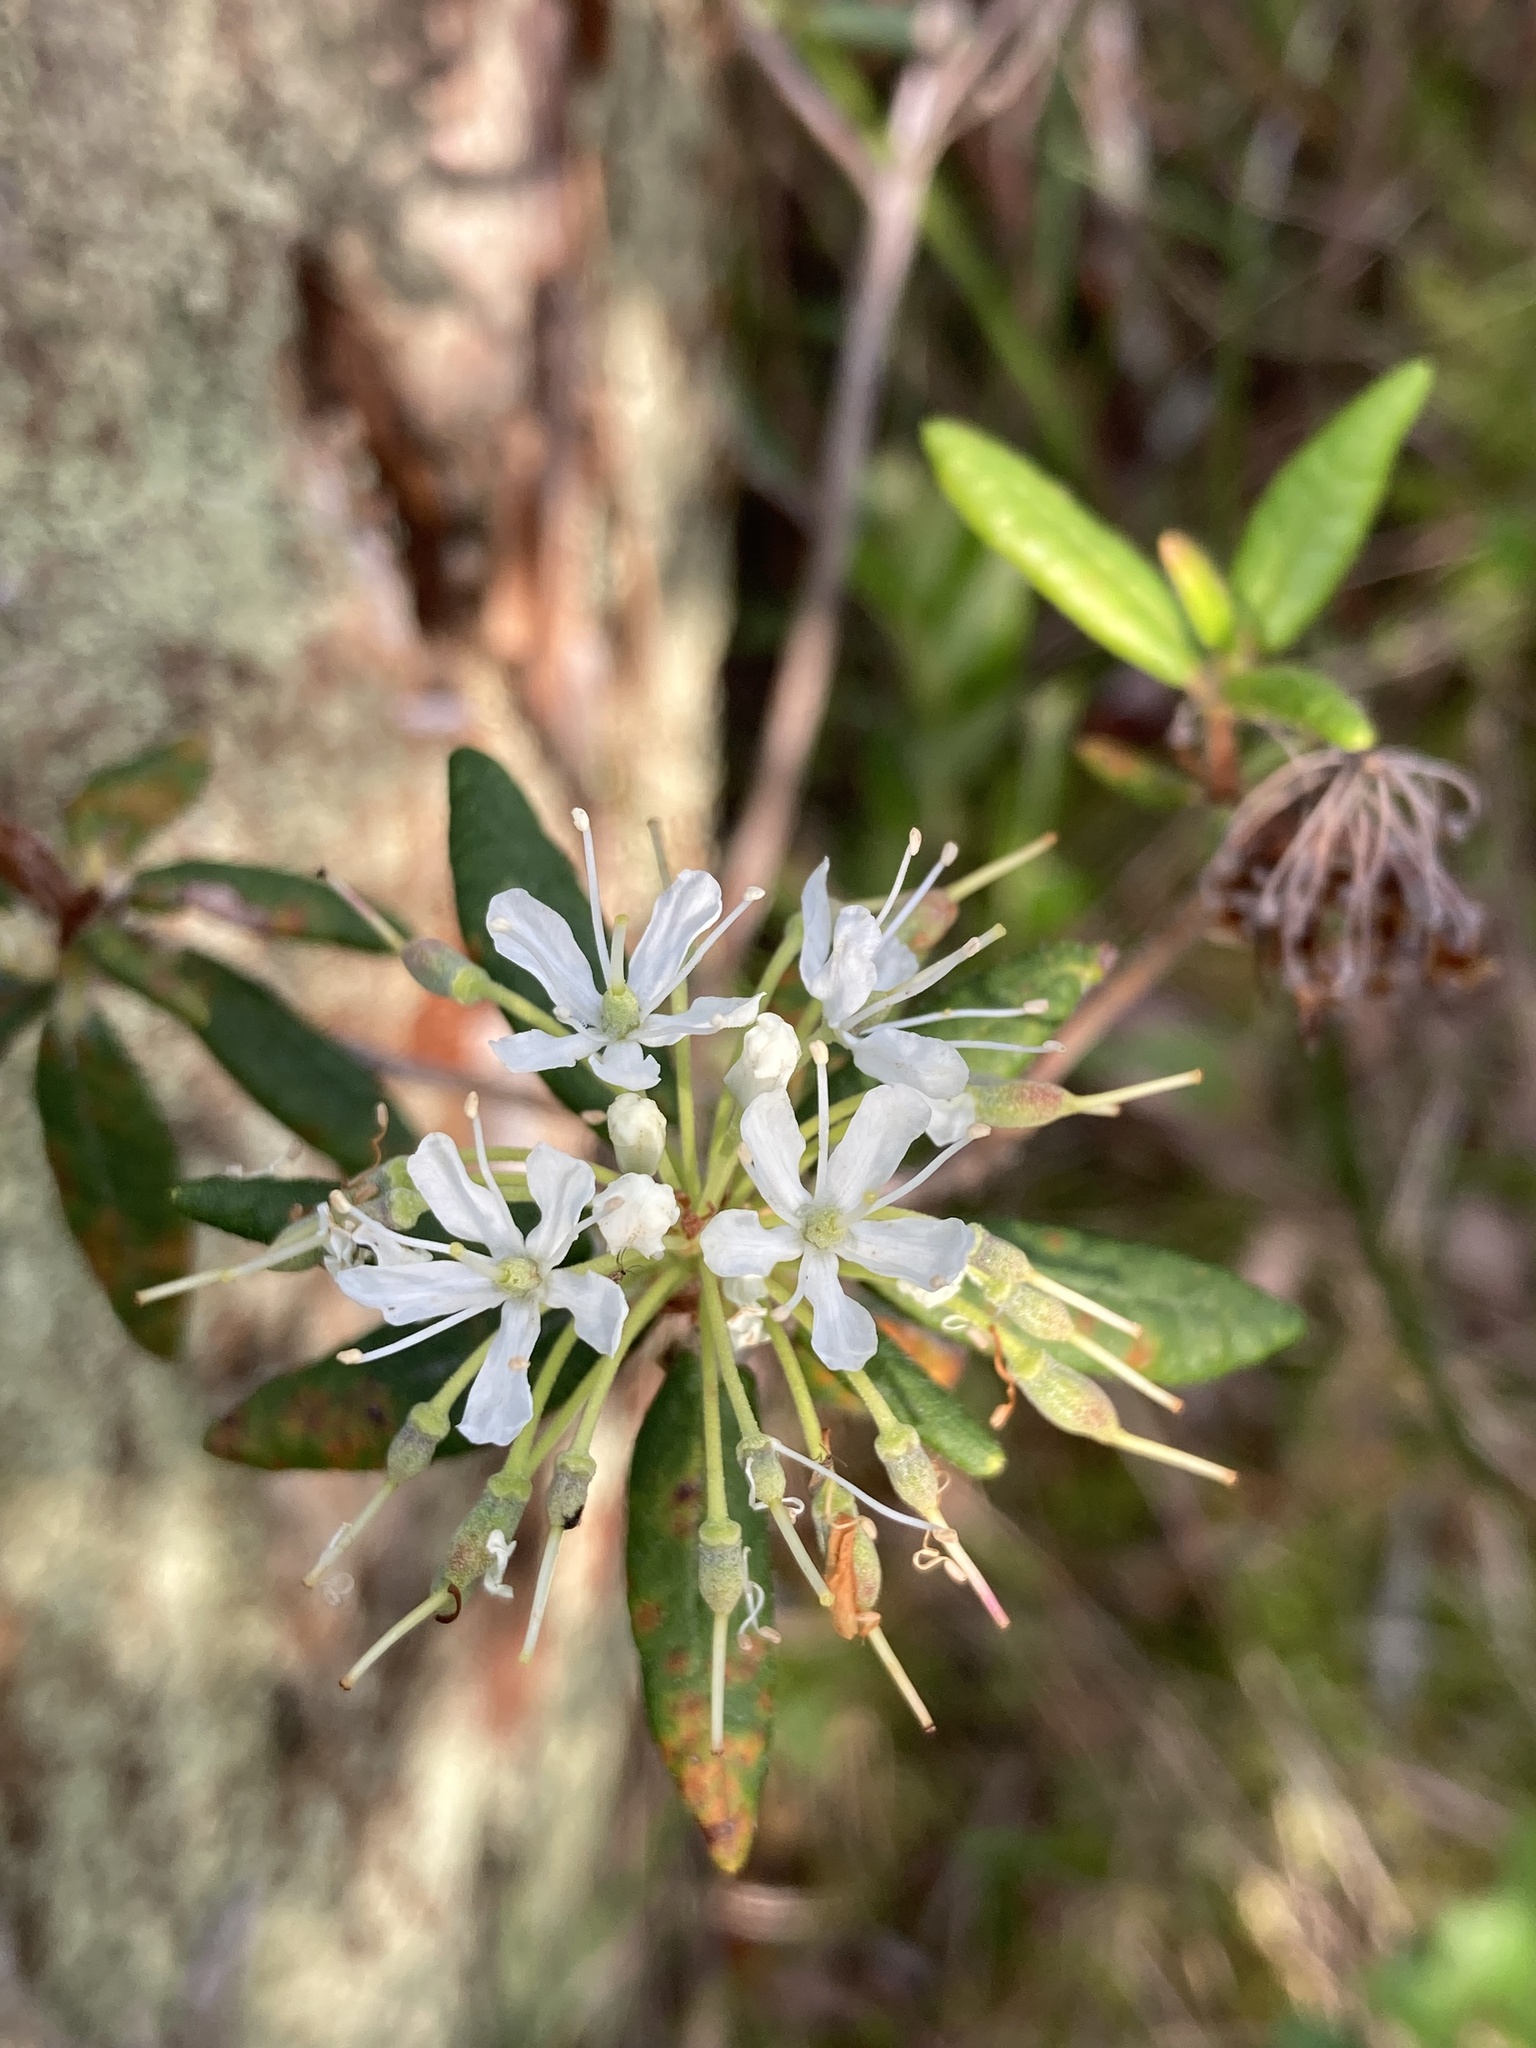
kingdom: Plantae
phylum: Tracheophyta
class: Magnoliopsida
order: Ericales
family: Ericaceae
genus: Rhododendron
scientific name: Rhododendron groenlandicum
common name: Bog labrador tea
